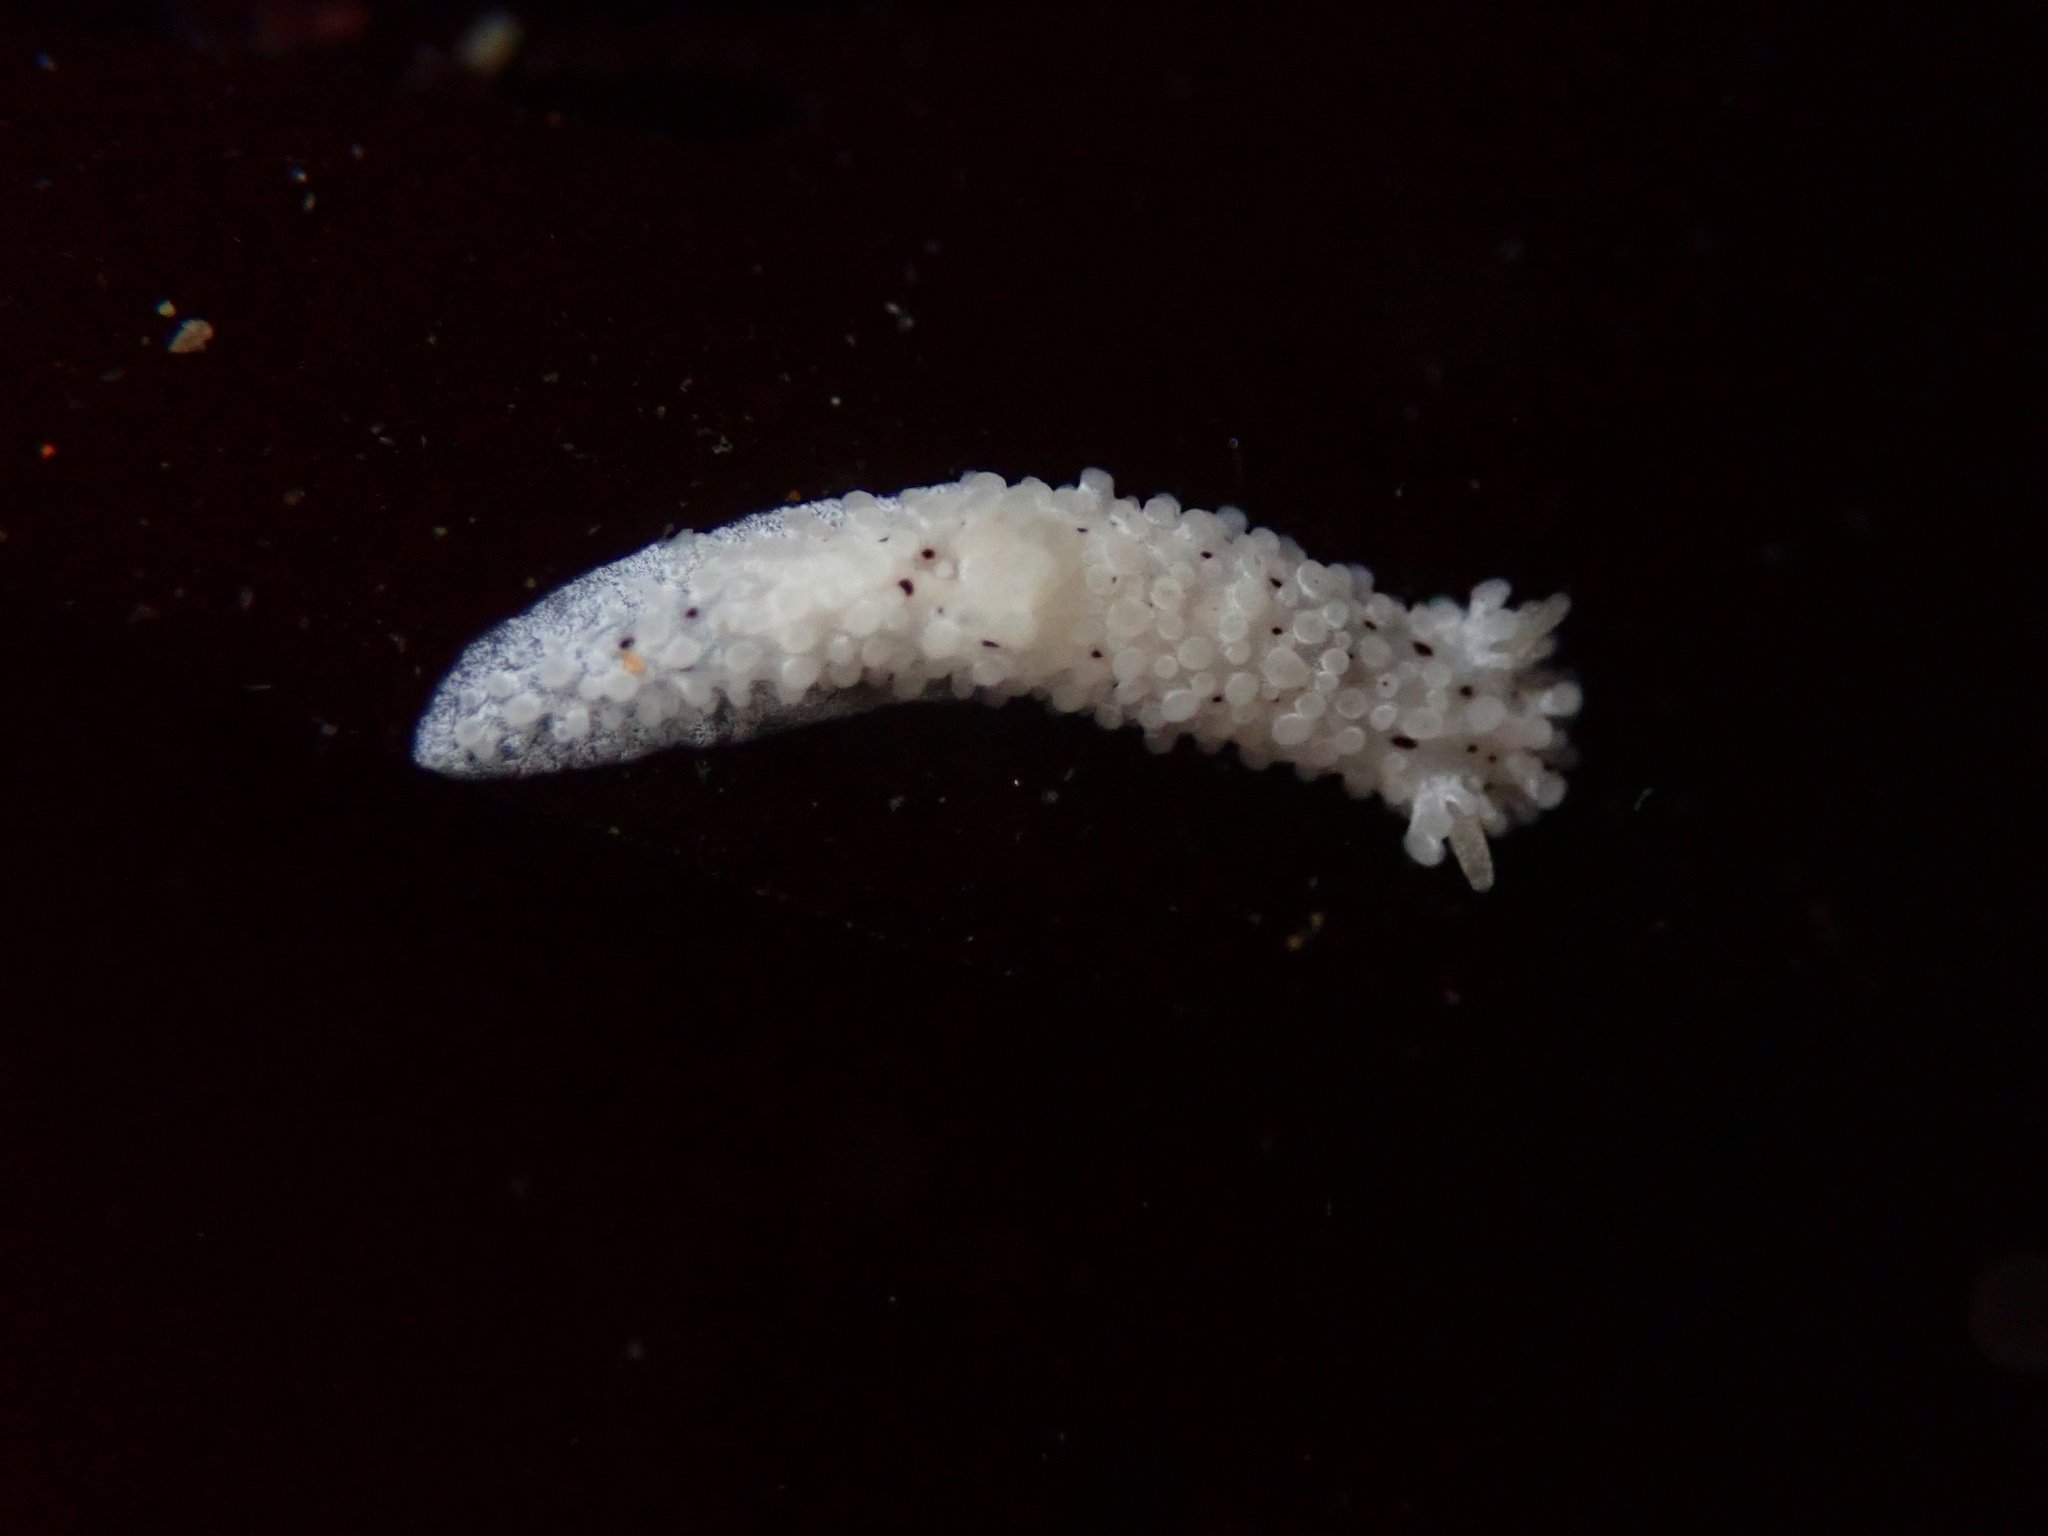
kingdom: Animalia
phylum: Mollusca
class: Gastropoda
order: Nudibranchia
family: Aegiridae
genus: Aegires
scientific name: Aegires albopunctatus
